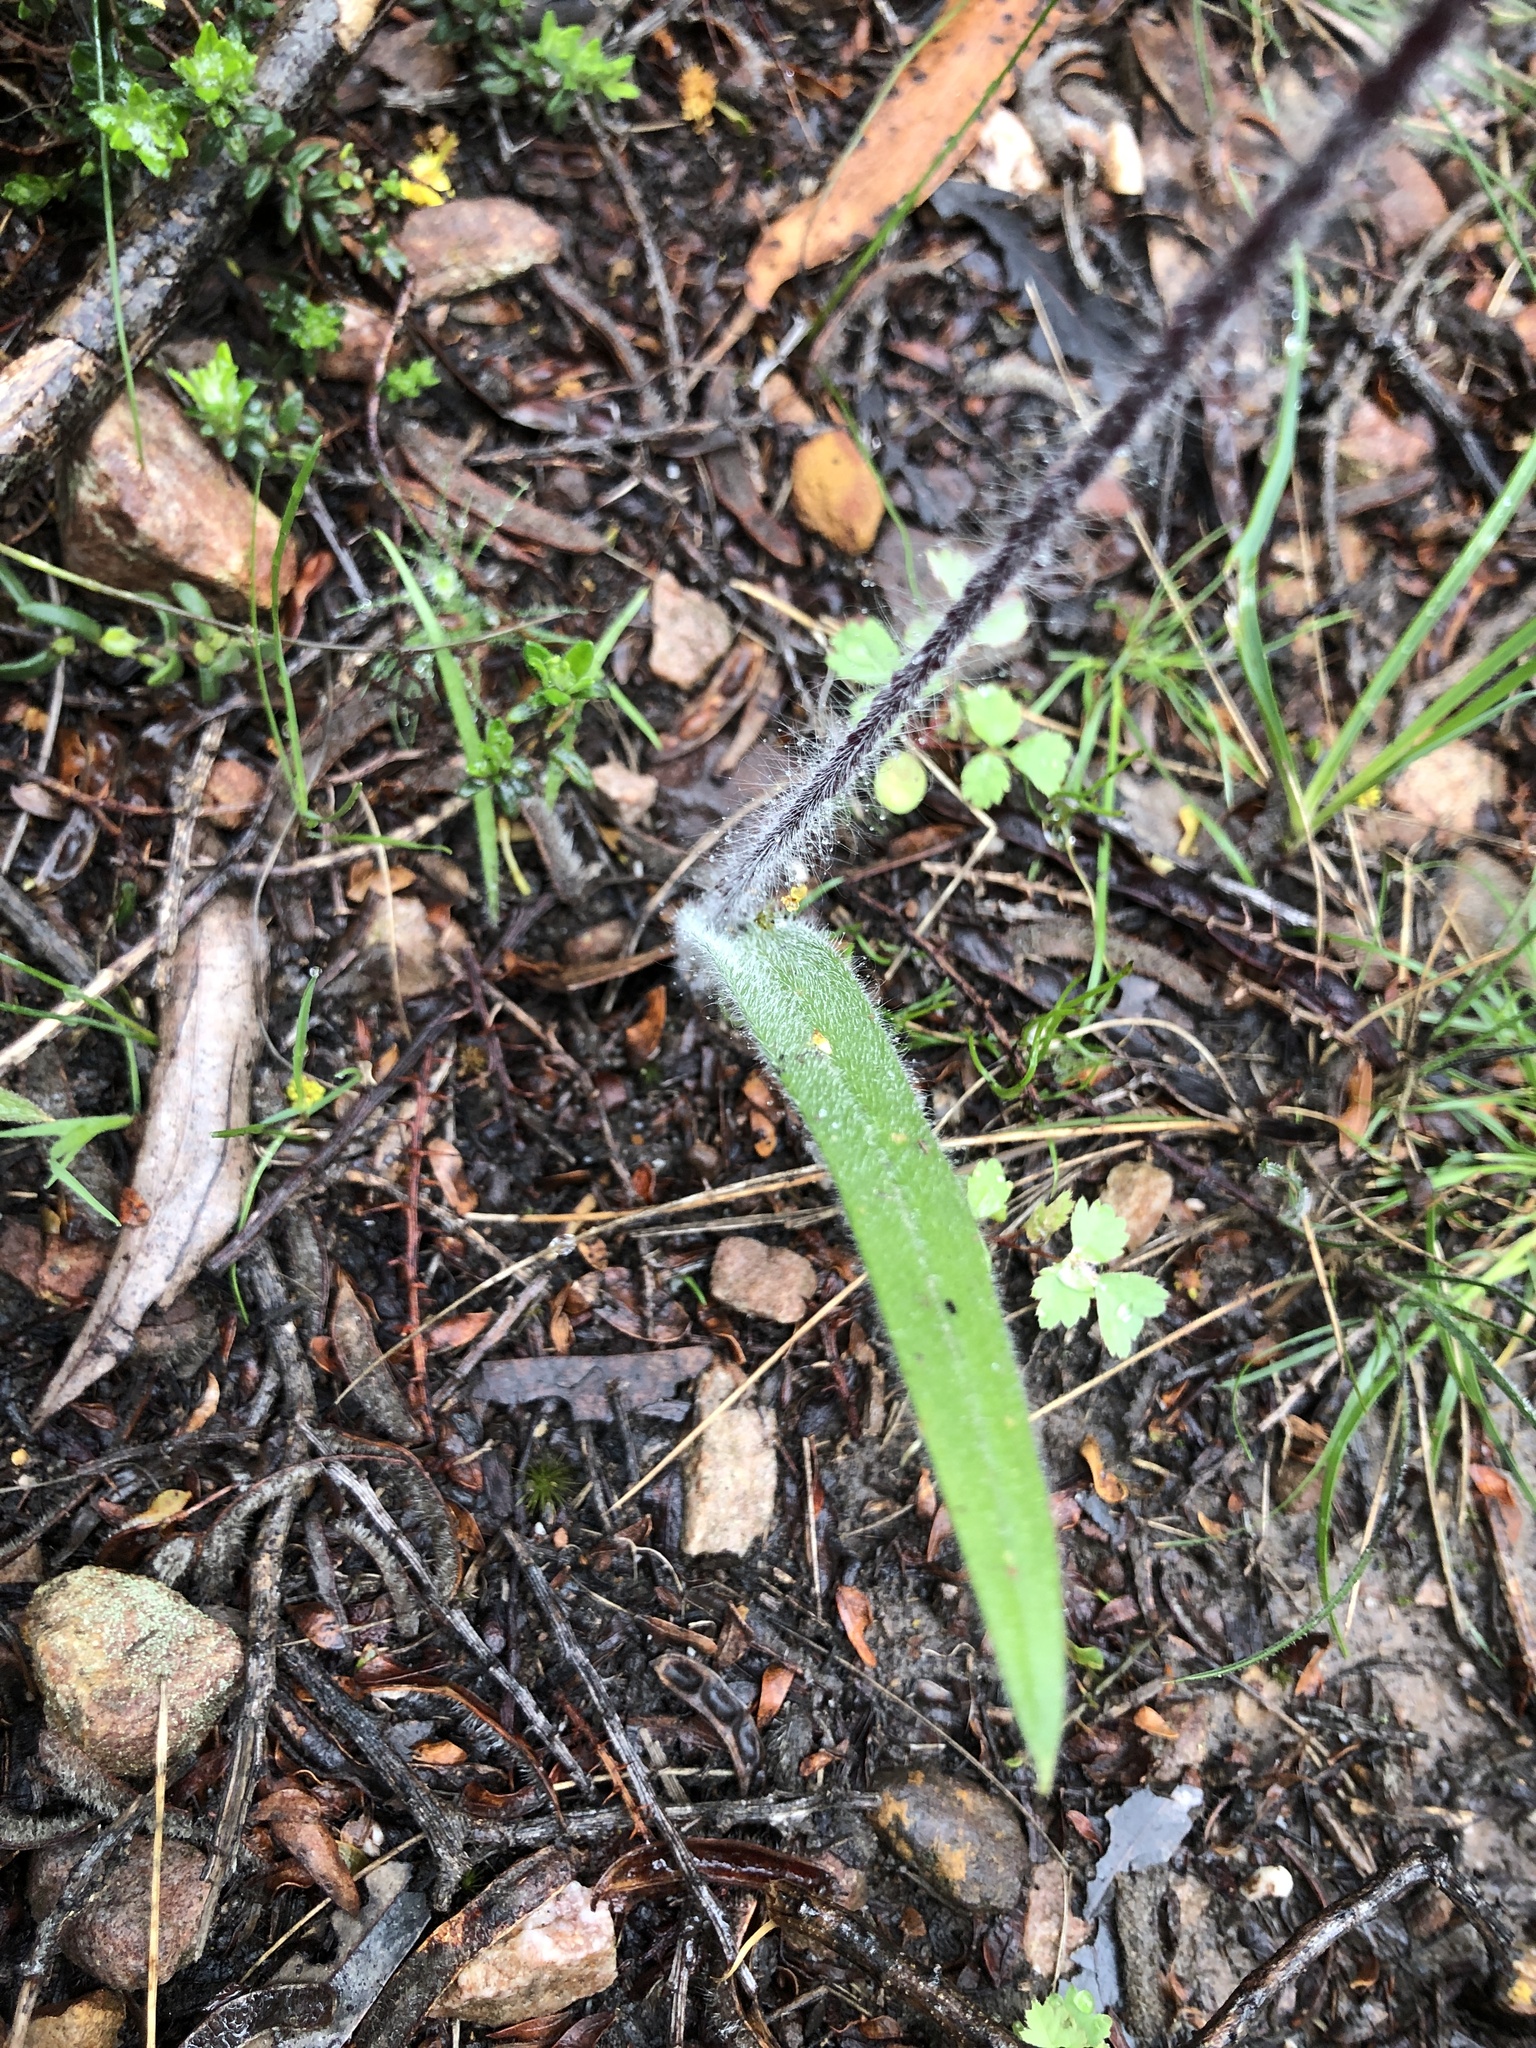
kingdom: Plantae
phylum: Tracheophyta
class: Liliopsida
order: Asparagales
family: Orchidaceae
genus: Caladenia
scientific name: Caladenia tentaculata
